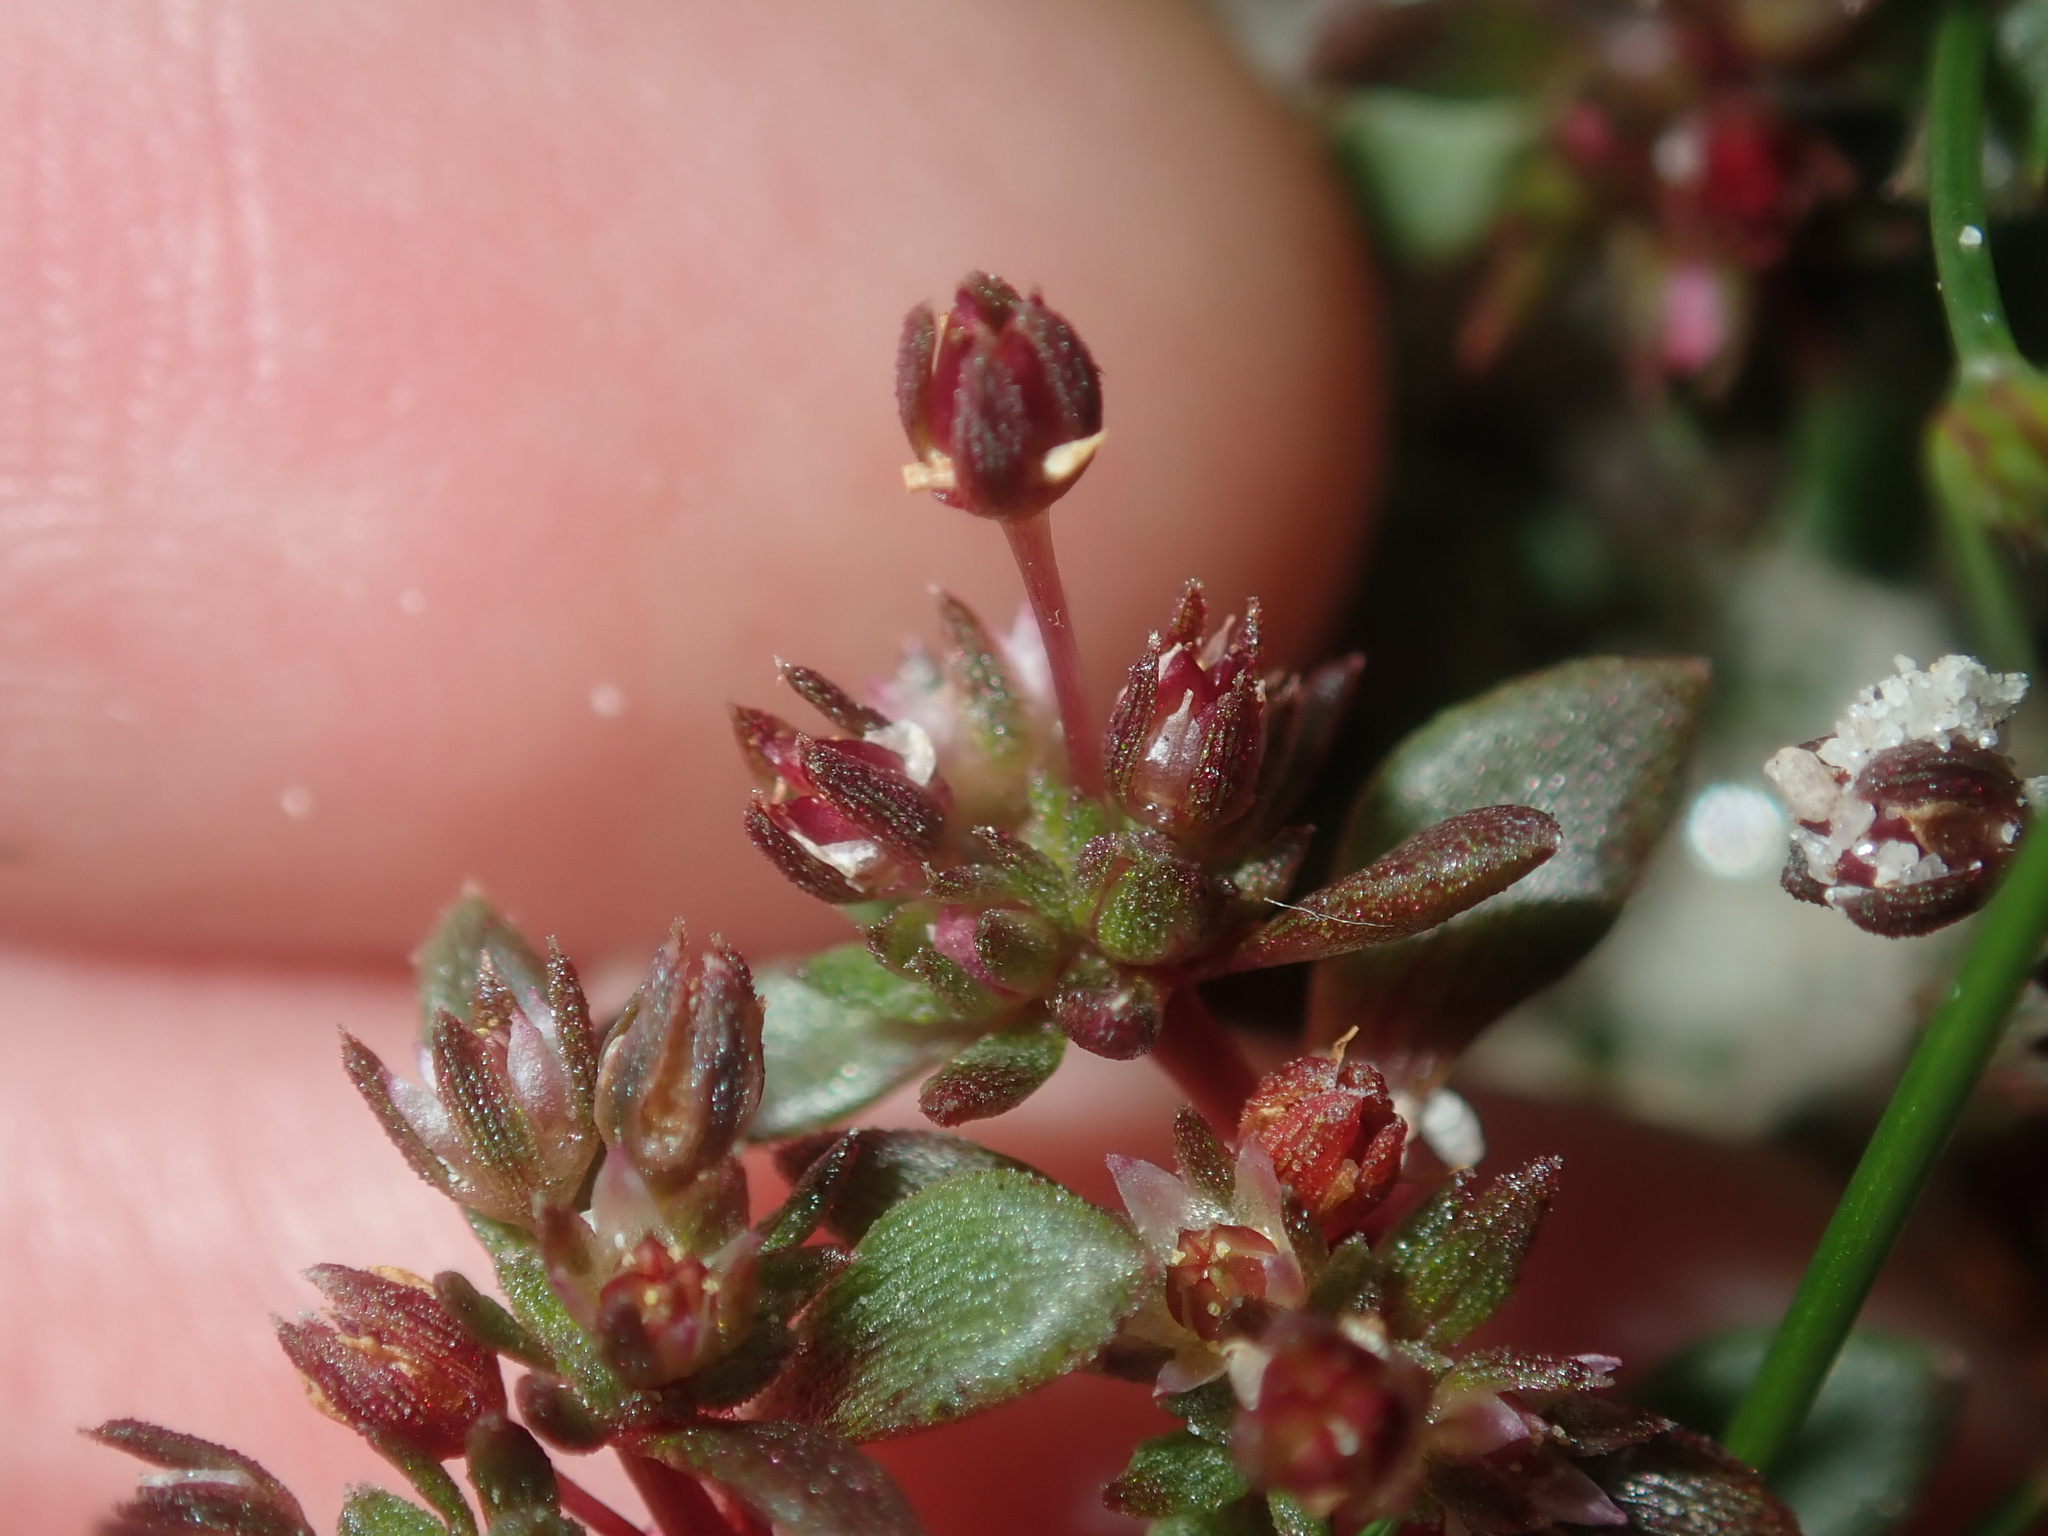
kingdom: Plantae
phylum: Tracheophyta
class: Magnoliopsida
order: Saxifragales
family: Crassulaceae
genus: Crassula
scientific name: Crassula closiana
